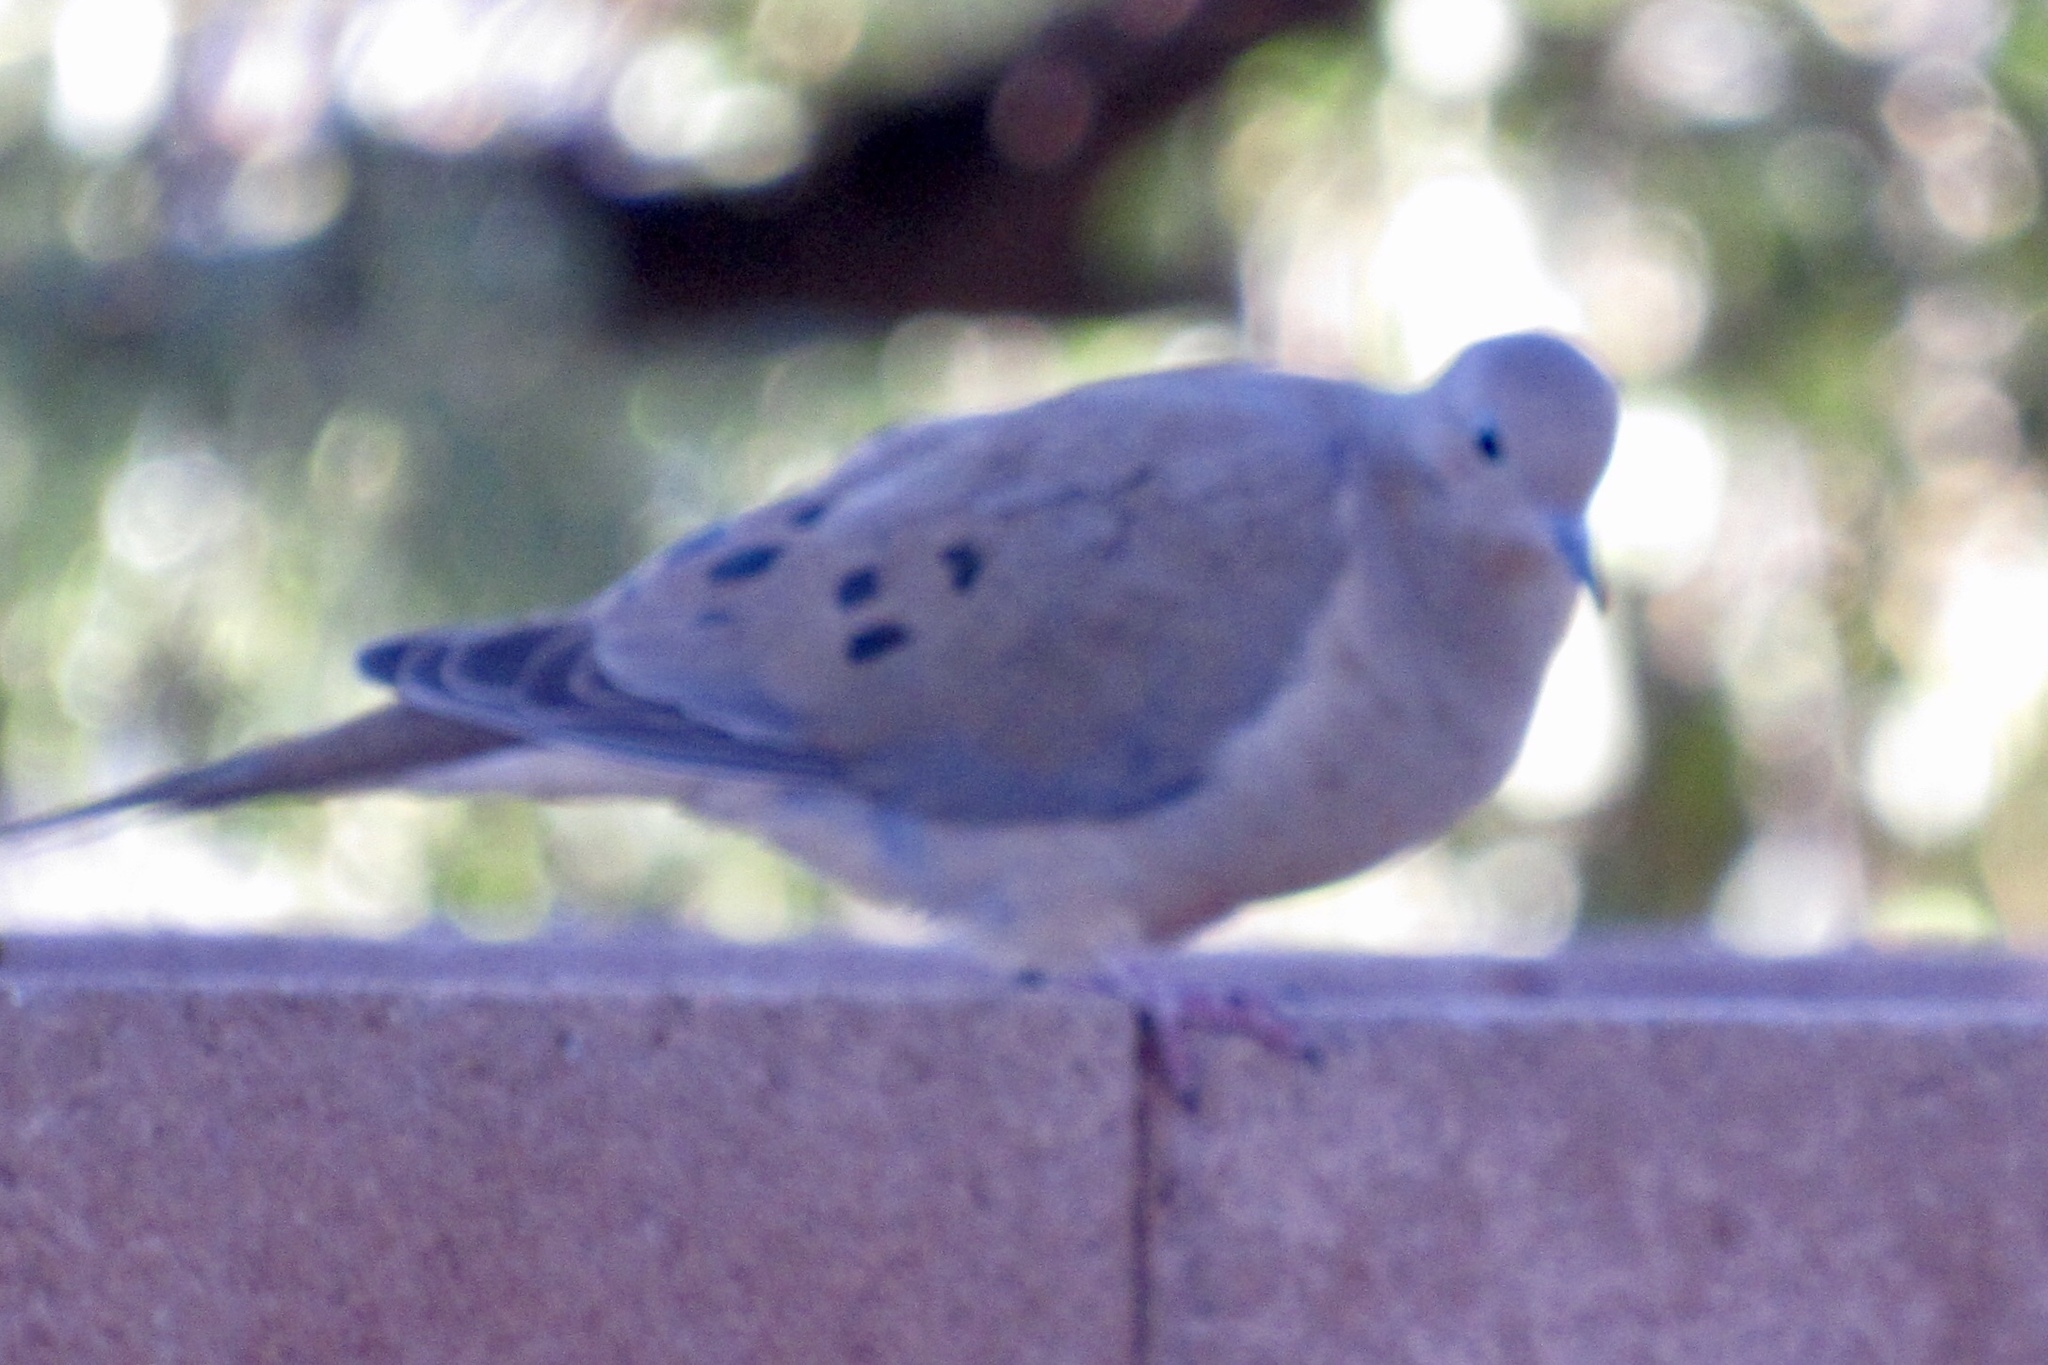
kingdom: Animalia
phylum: Chordata
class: Aves
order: Columbiformes
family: Columbidae
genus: Zenaida
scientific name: Zenaida macroura
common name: Mourning dove
